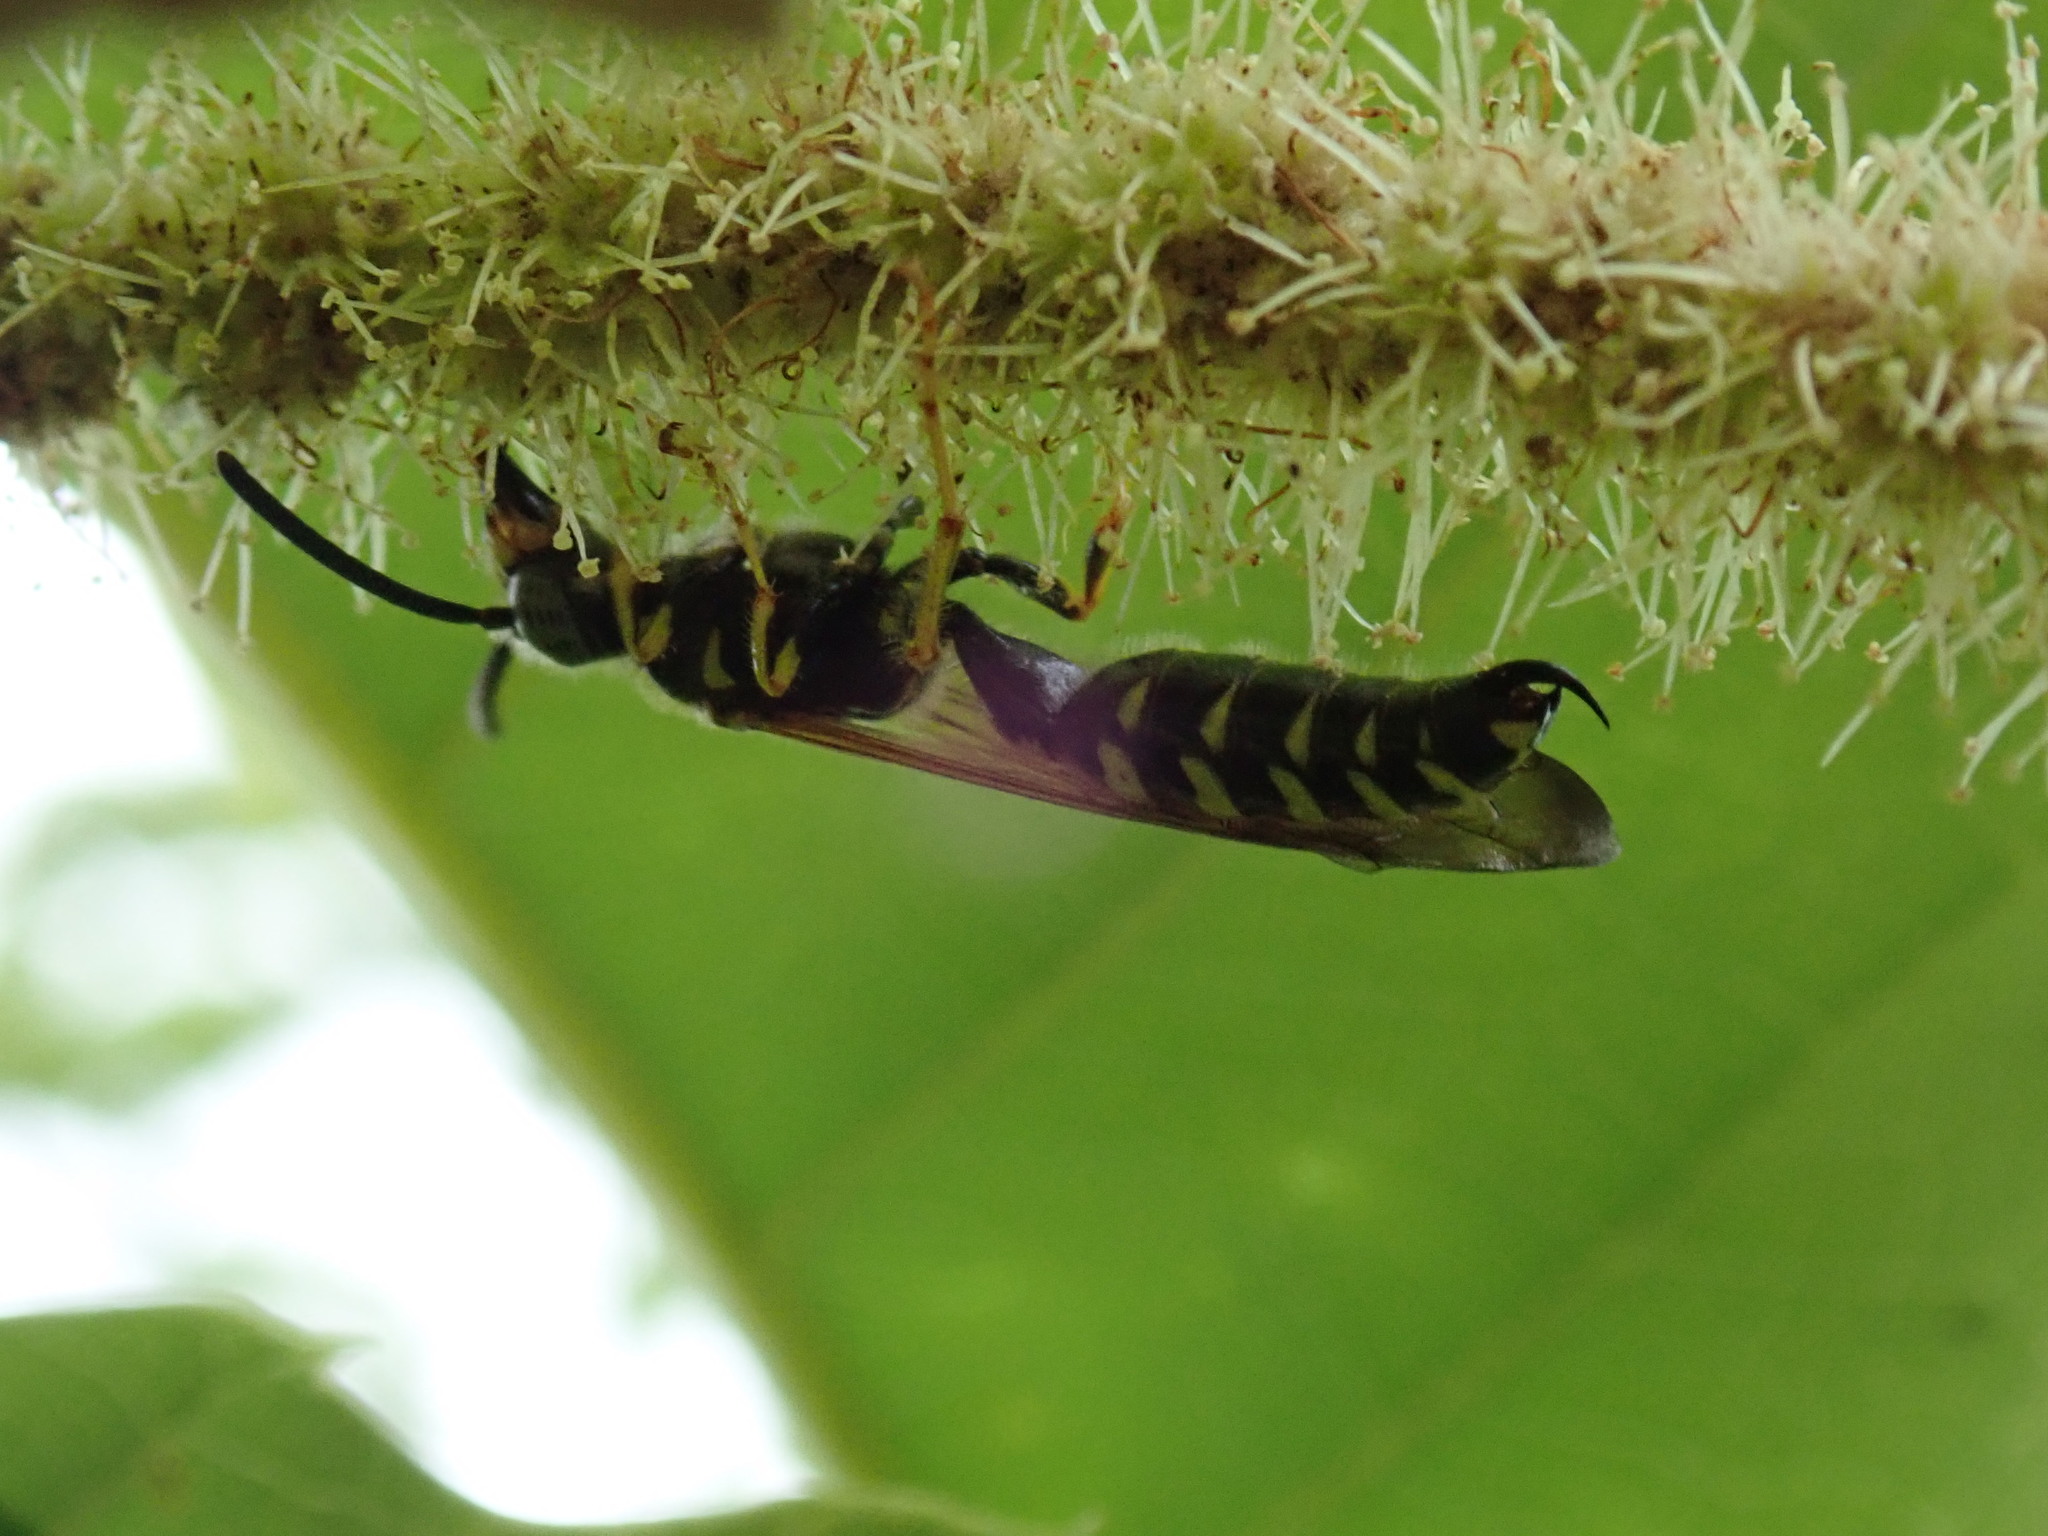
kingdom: Animalia
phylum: Arthropoda
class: Insecta
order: Hymenoptera
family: Tiphiidae
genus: Myzinum
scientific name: Myzinum quinquecinctum
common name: Five-banded thynnid wasp
